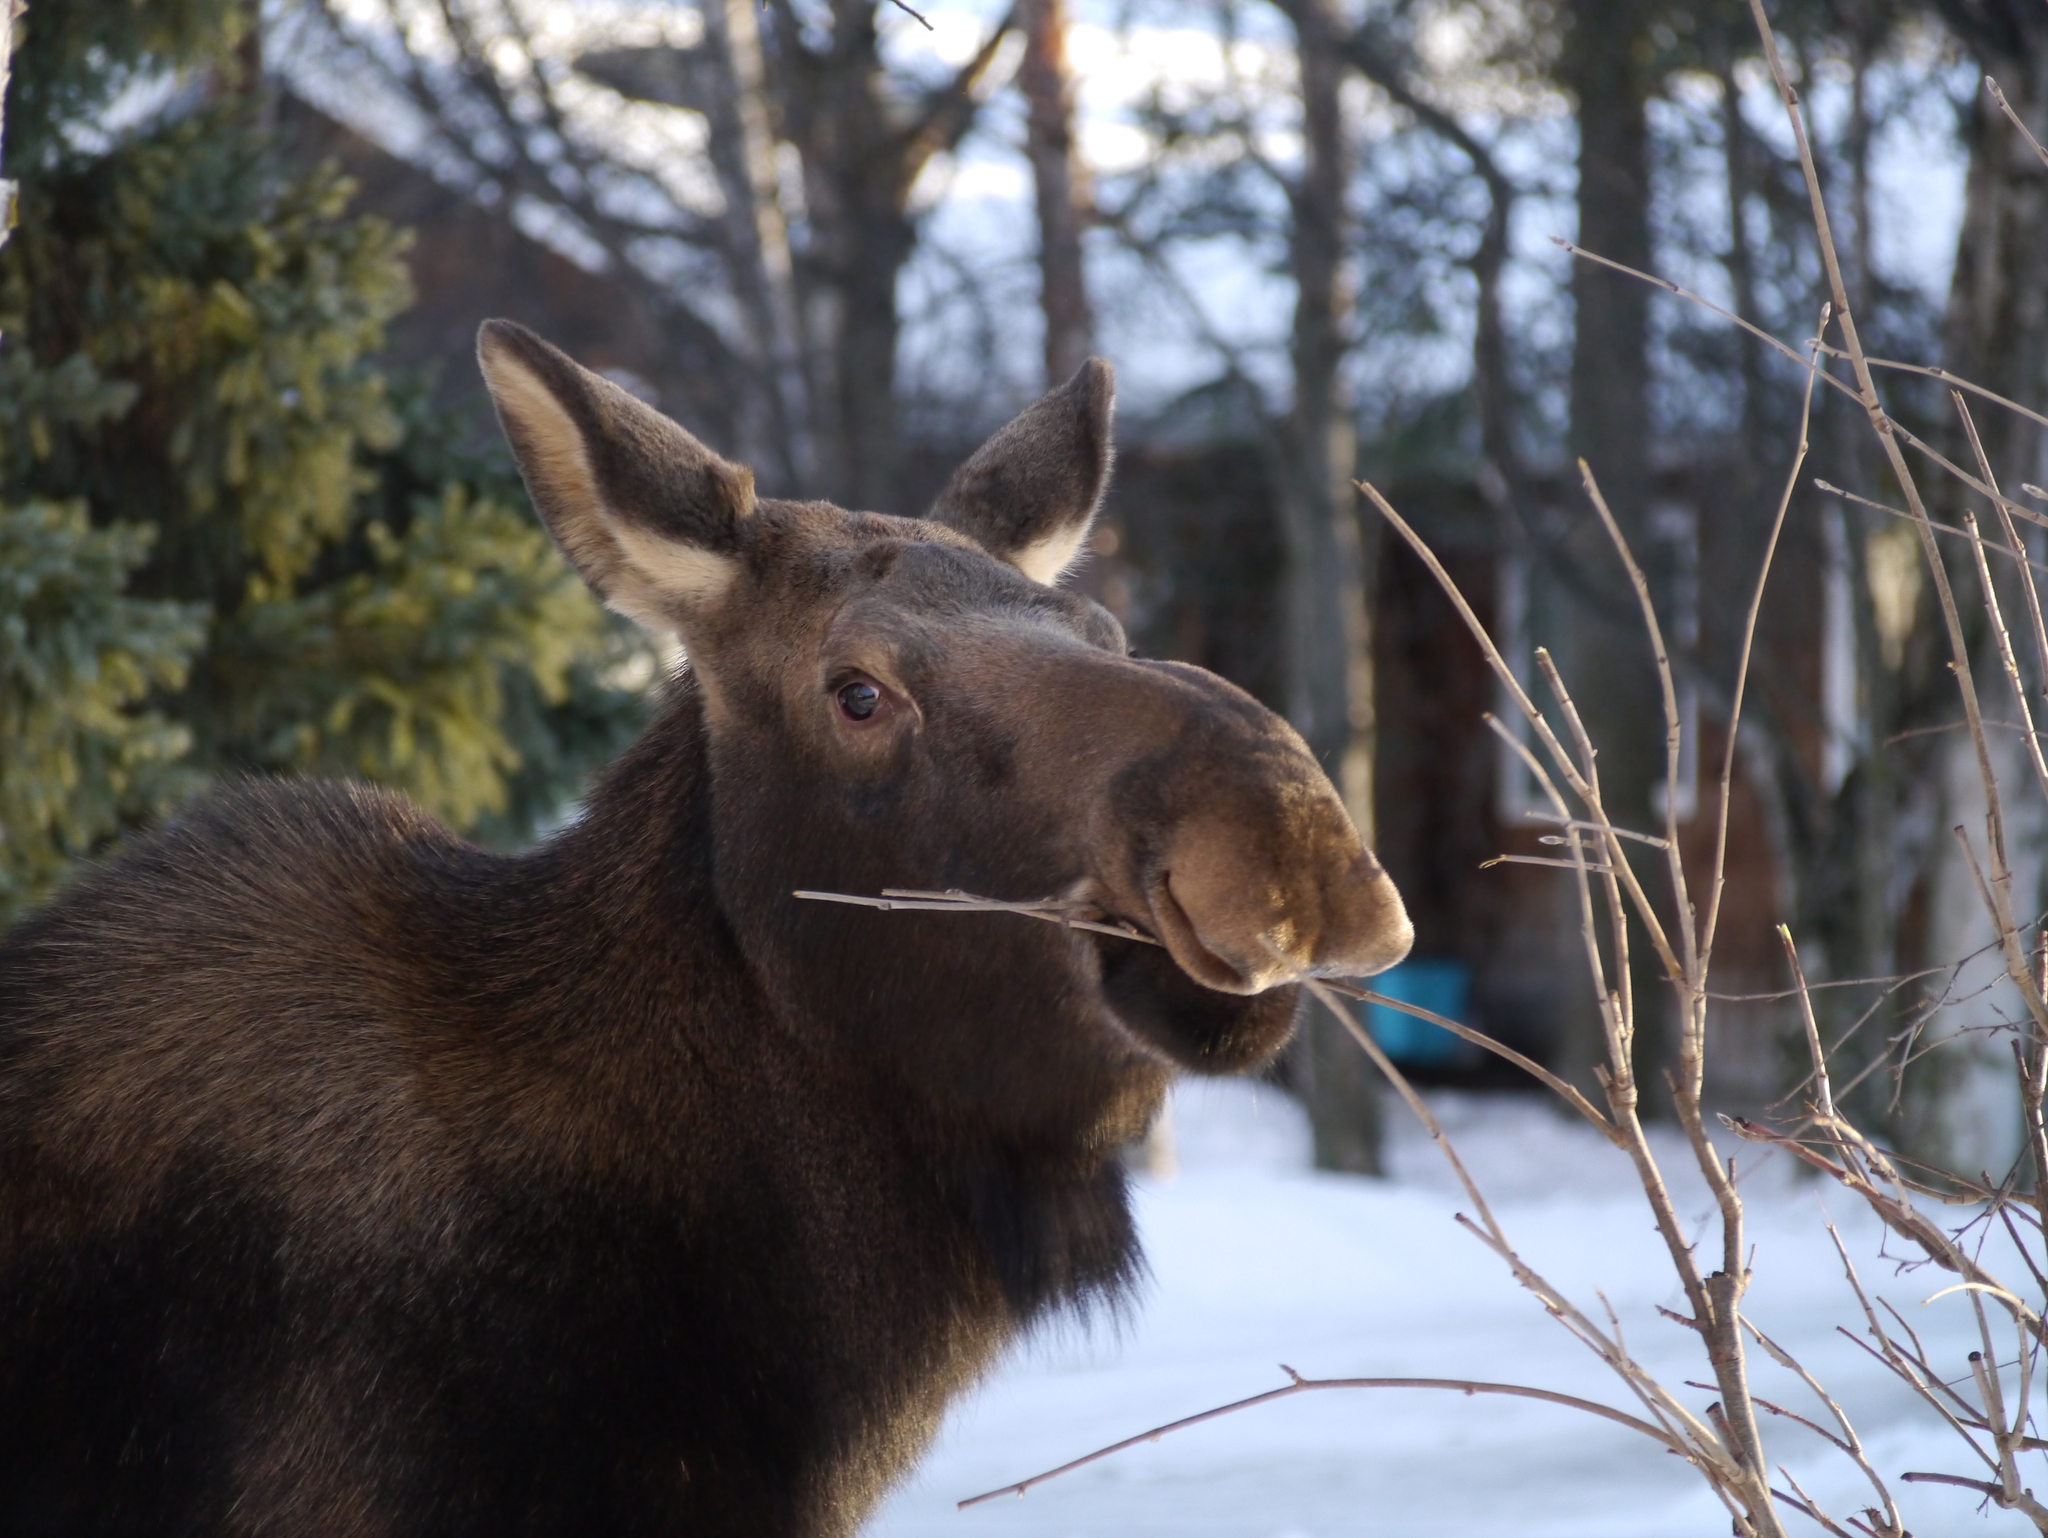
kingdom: Animalia
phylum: Chordata
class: Mammalia
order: Artiodactyla
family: Cervidae
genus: Alces
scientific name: Alces alces
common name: Moose
